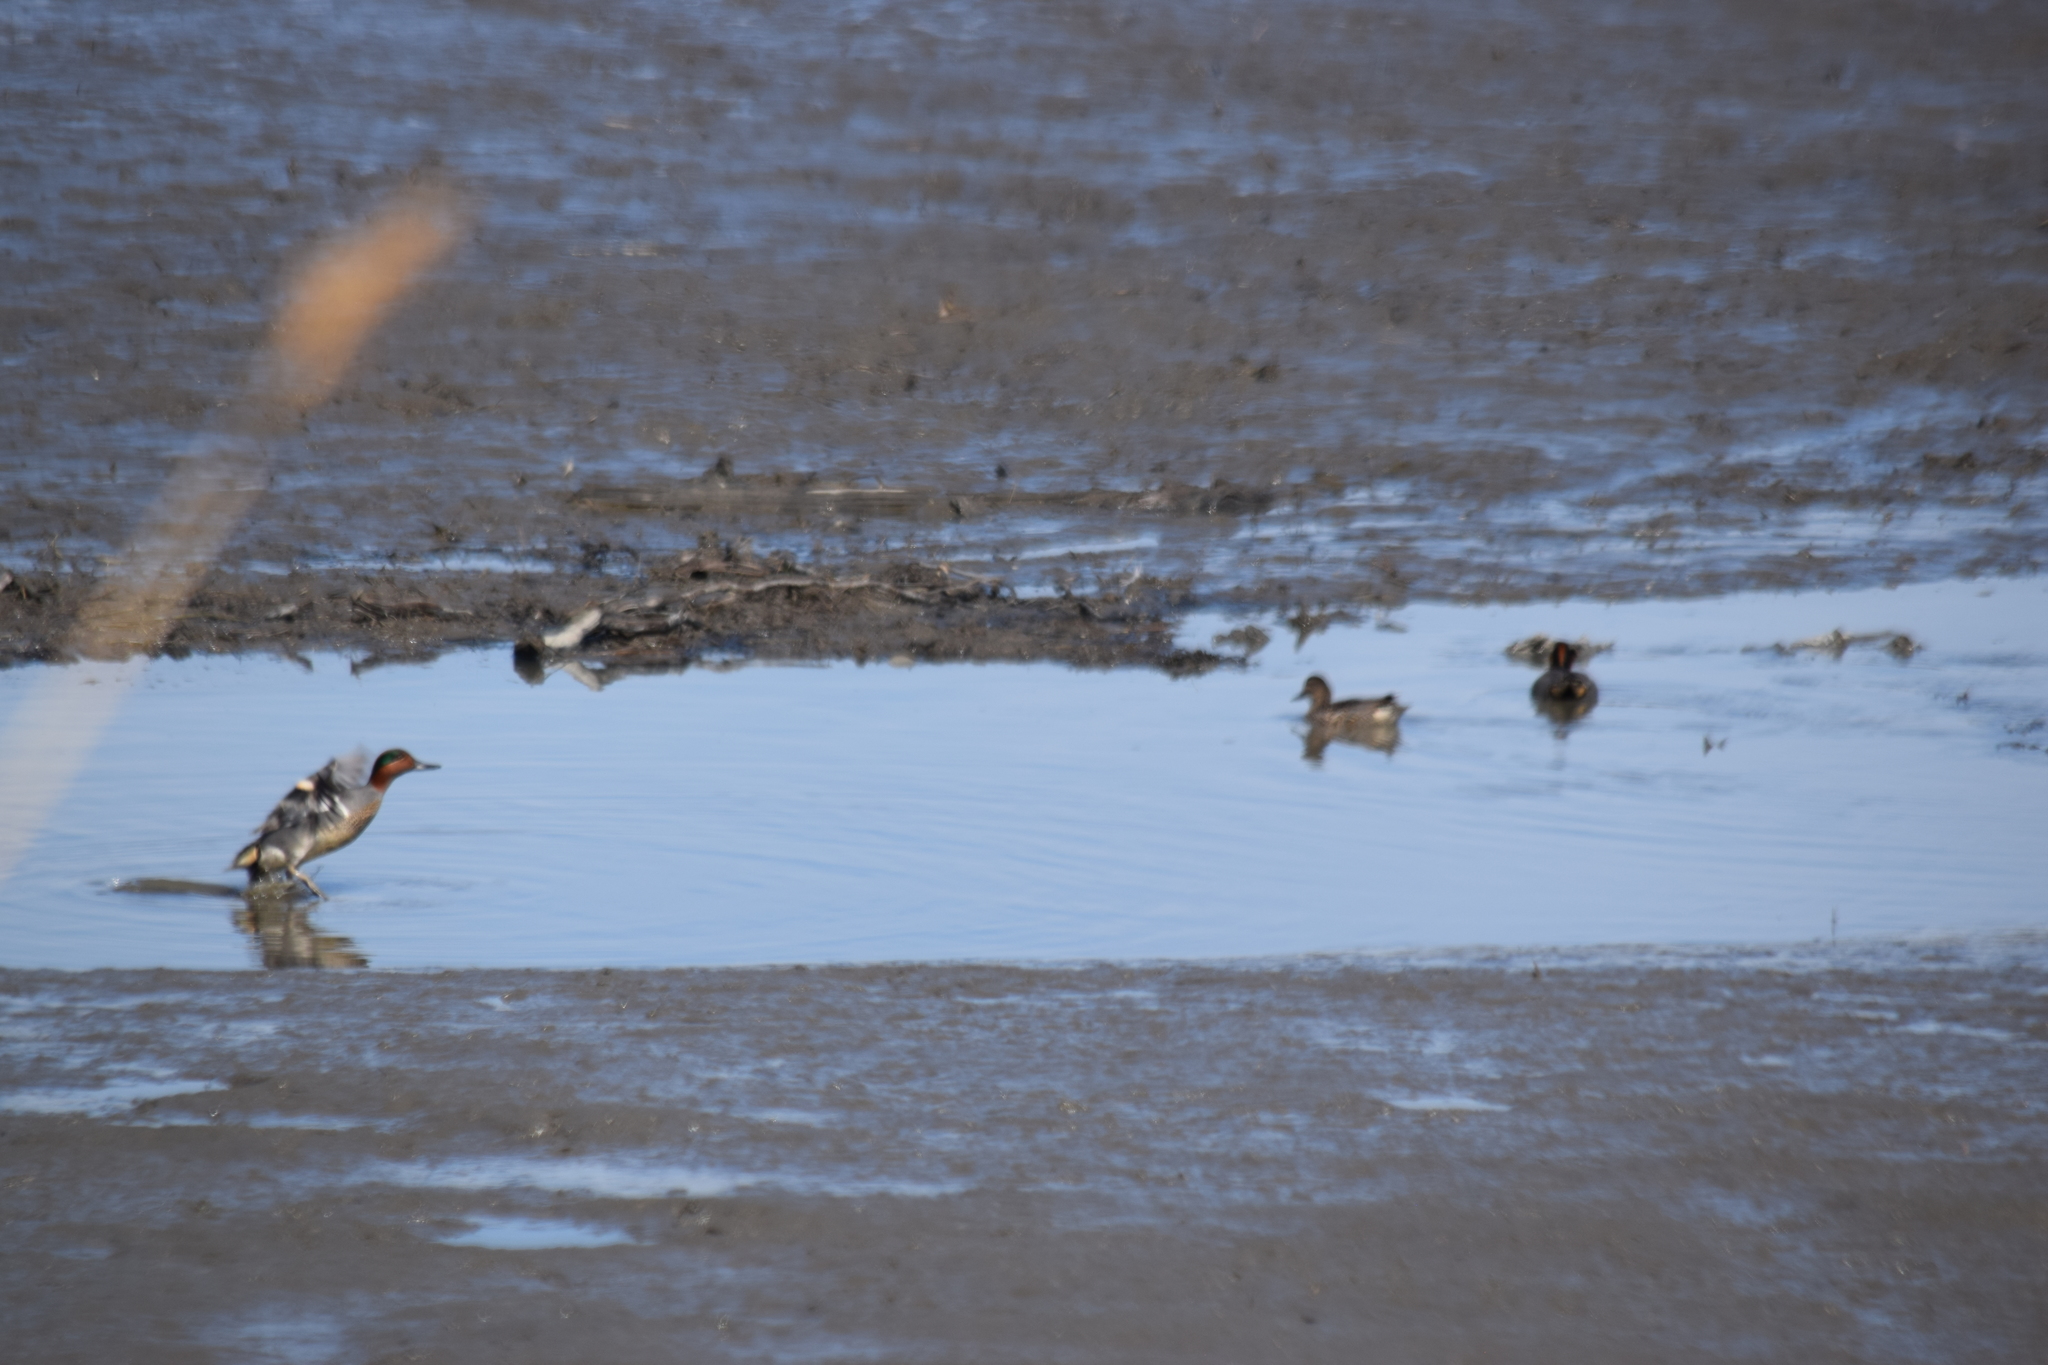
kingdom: Animalia
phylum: Chordata
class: Aves
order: Anseriformes
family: Anatidae
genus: Anas
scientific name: Anas crecca
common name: Eurasian teal
